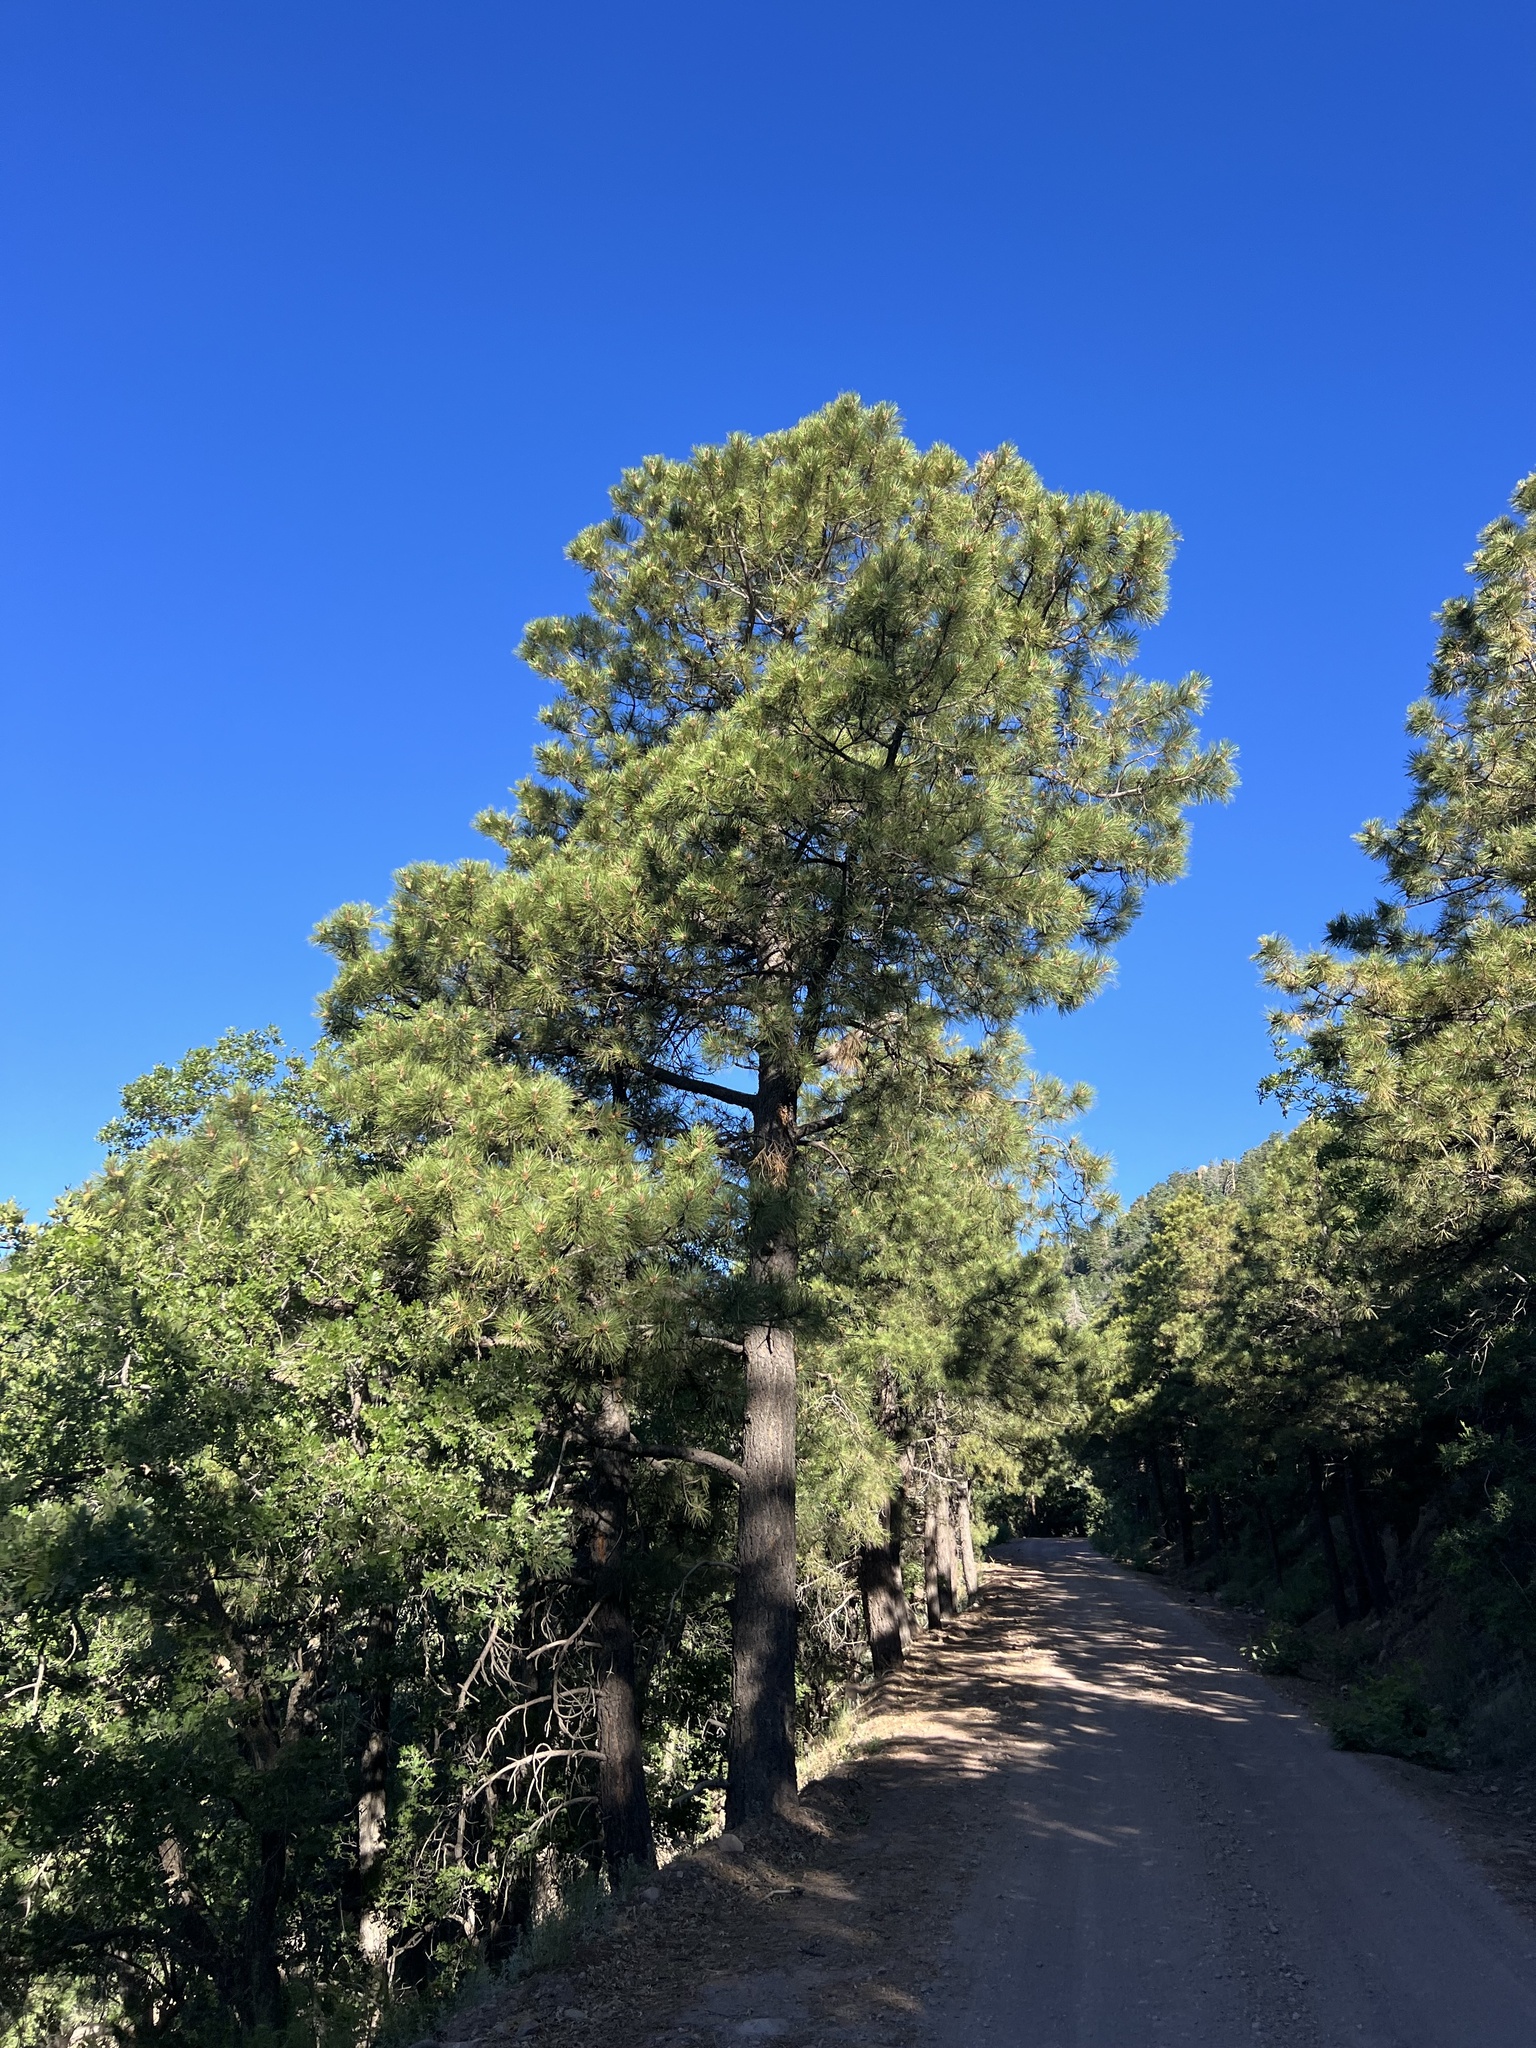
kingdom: Plantae
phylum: Tracheophyta
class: Pinopsida
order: Pinales
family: Pinaceae
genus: Pinus
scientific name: Pinus ponderosa
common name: Western yellow-pine
